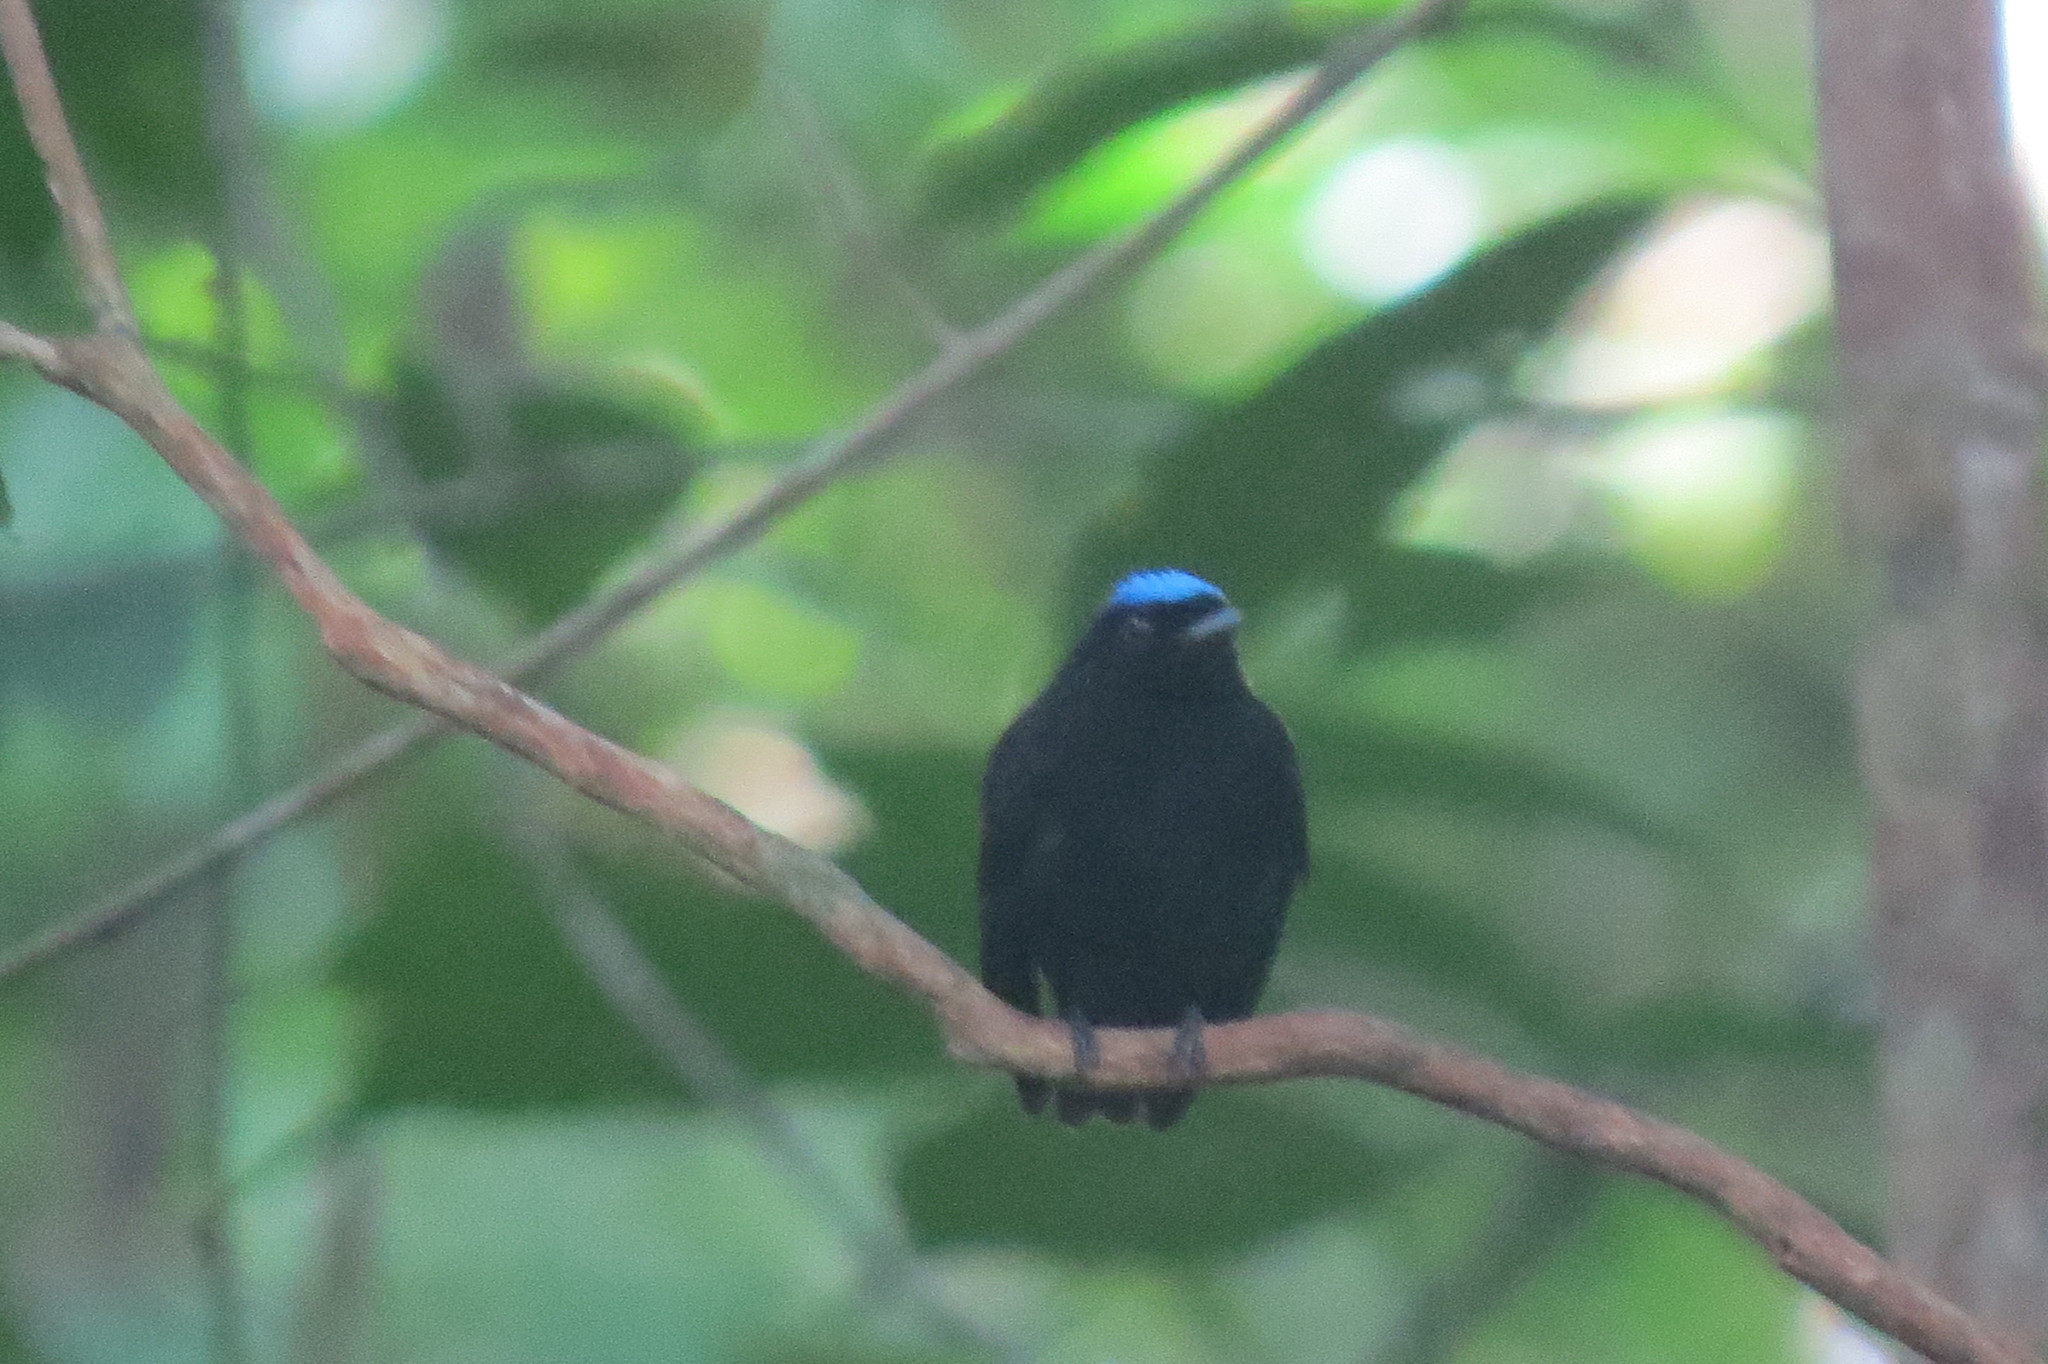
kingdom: Animalia
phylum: Chordata
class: Aves
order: Passeriformes
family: Pipridae
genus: Lepidothrix
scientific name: Lepidothrix coronata
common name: Blue-crowned manakin
